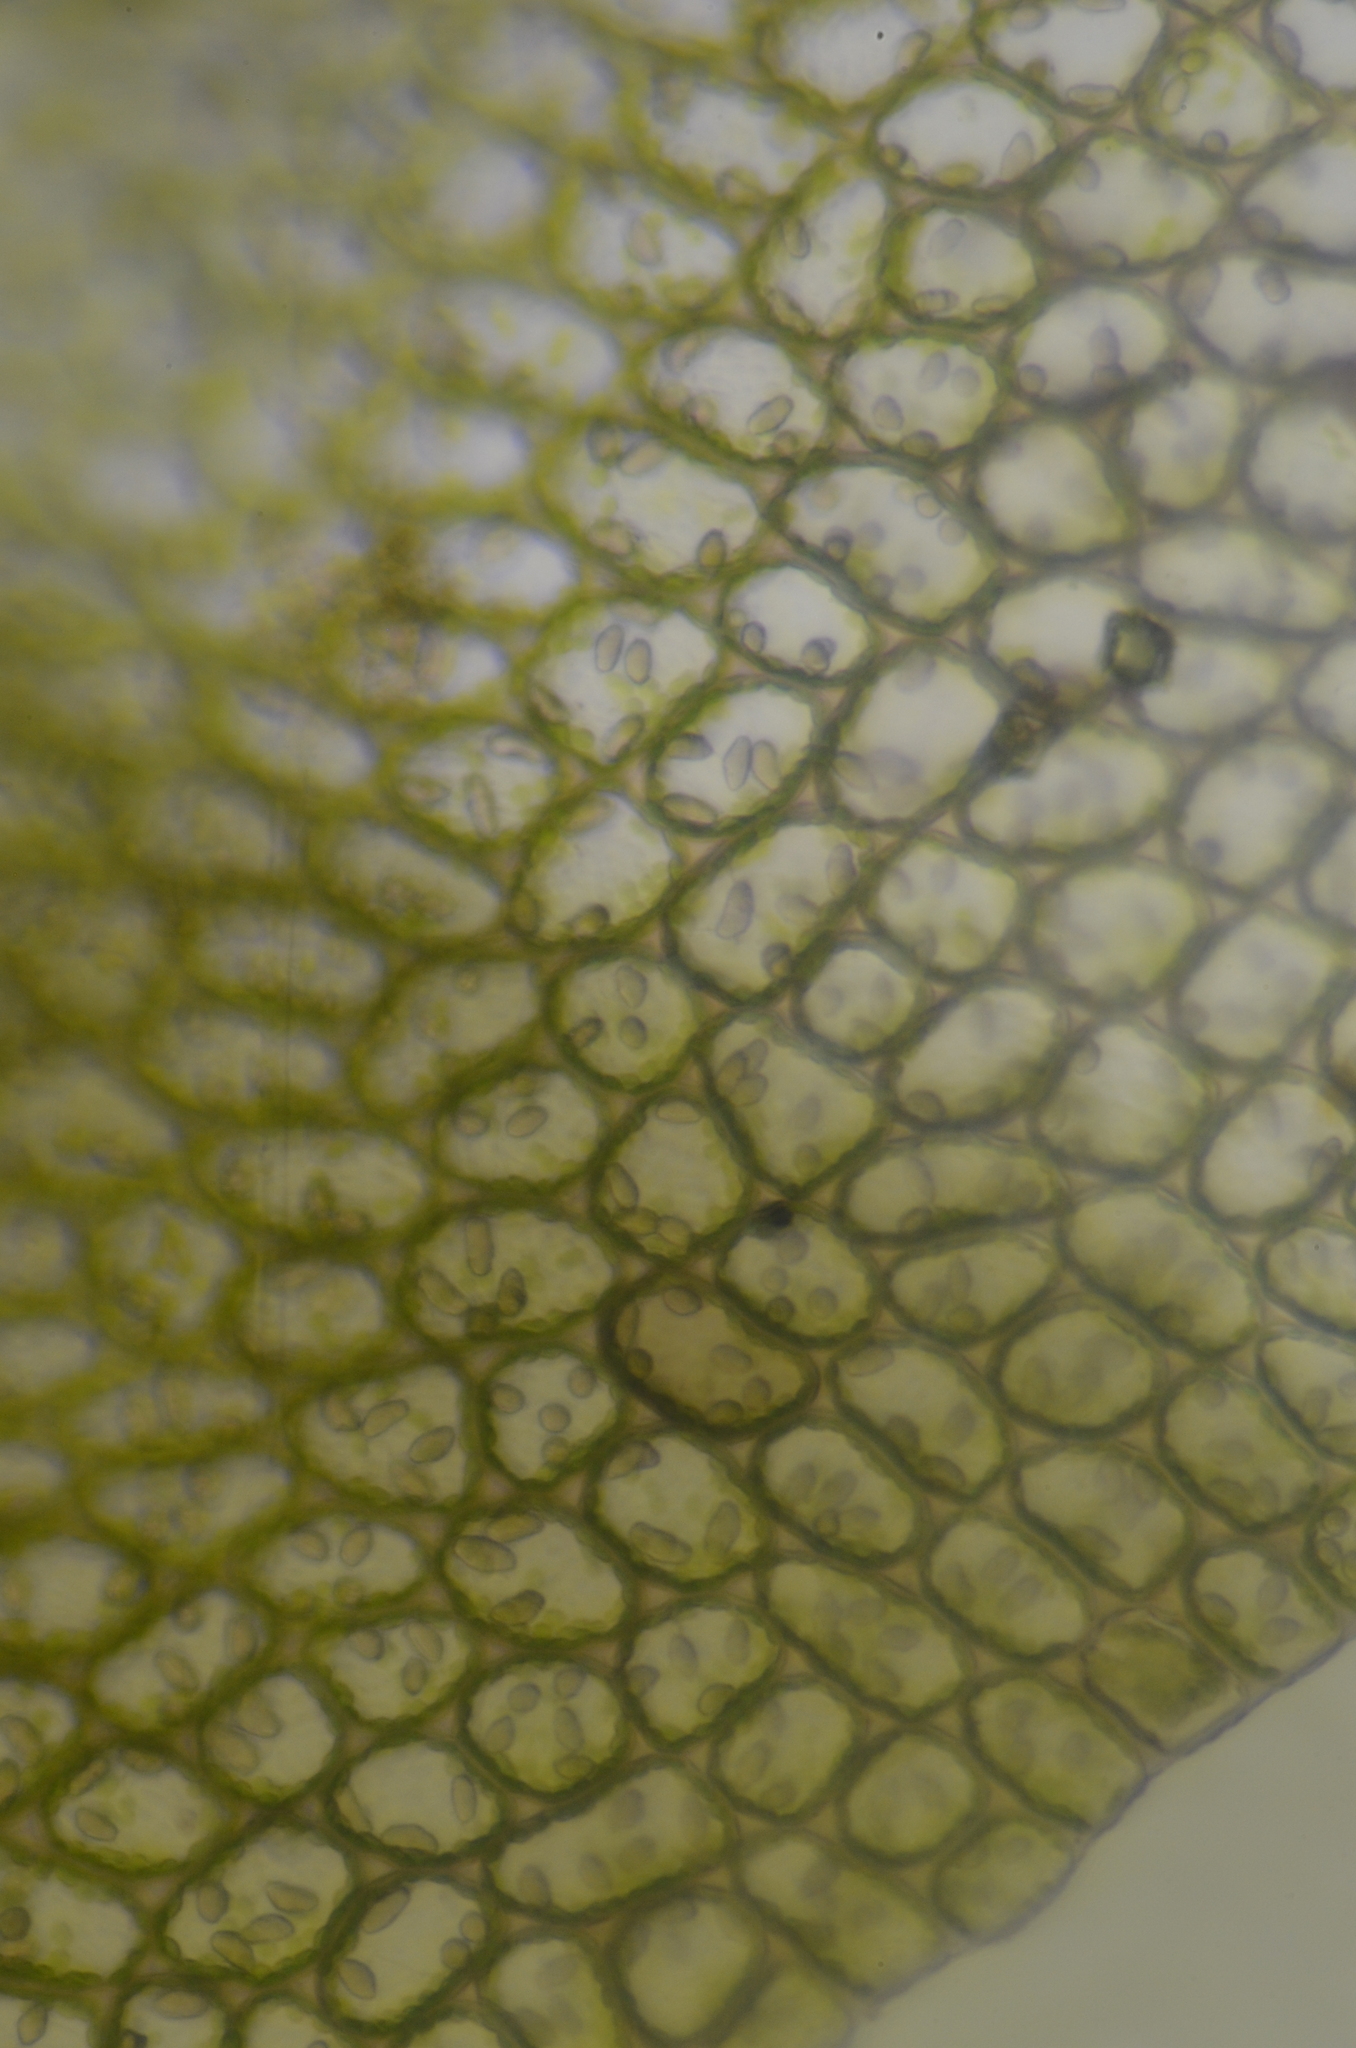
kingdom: Plantae
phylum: Marchantiophyta
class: Jungermanniopsida
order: Jungermanniales
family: Jungermanniaceae
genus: Mesoptychia
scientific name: Mesoptychia gillmanii
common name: Gillman's notchwort
